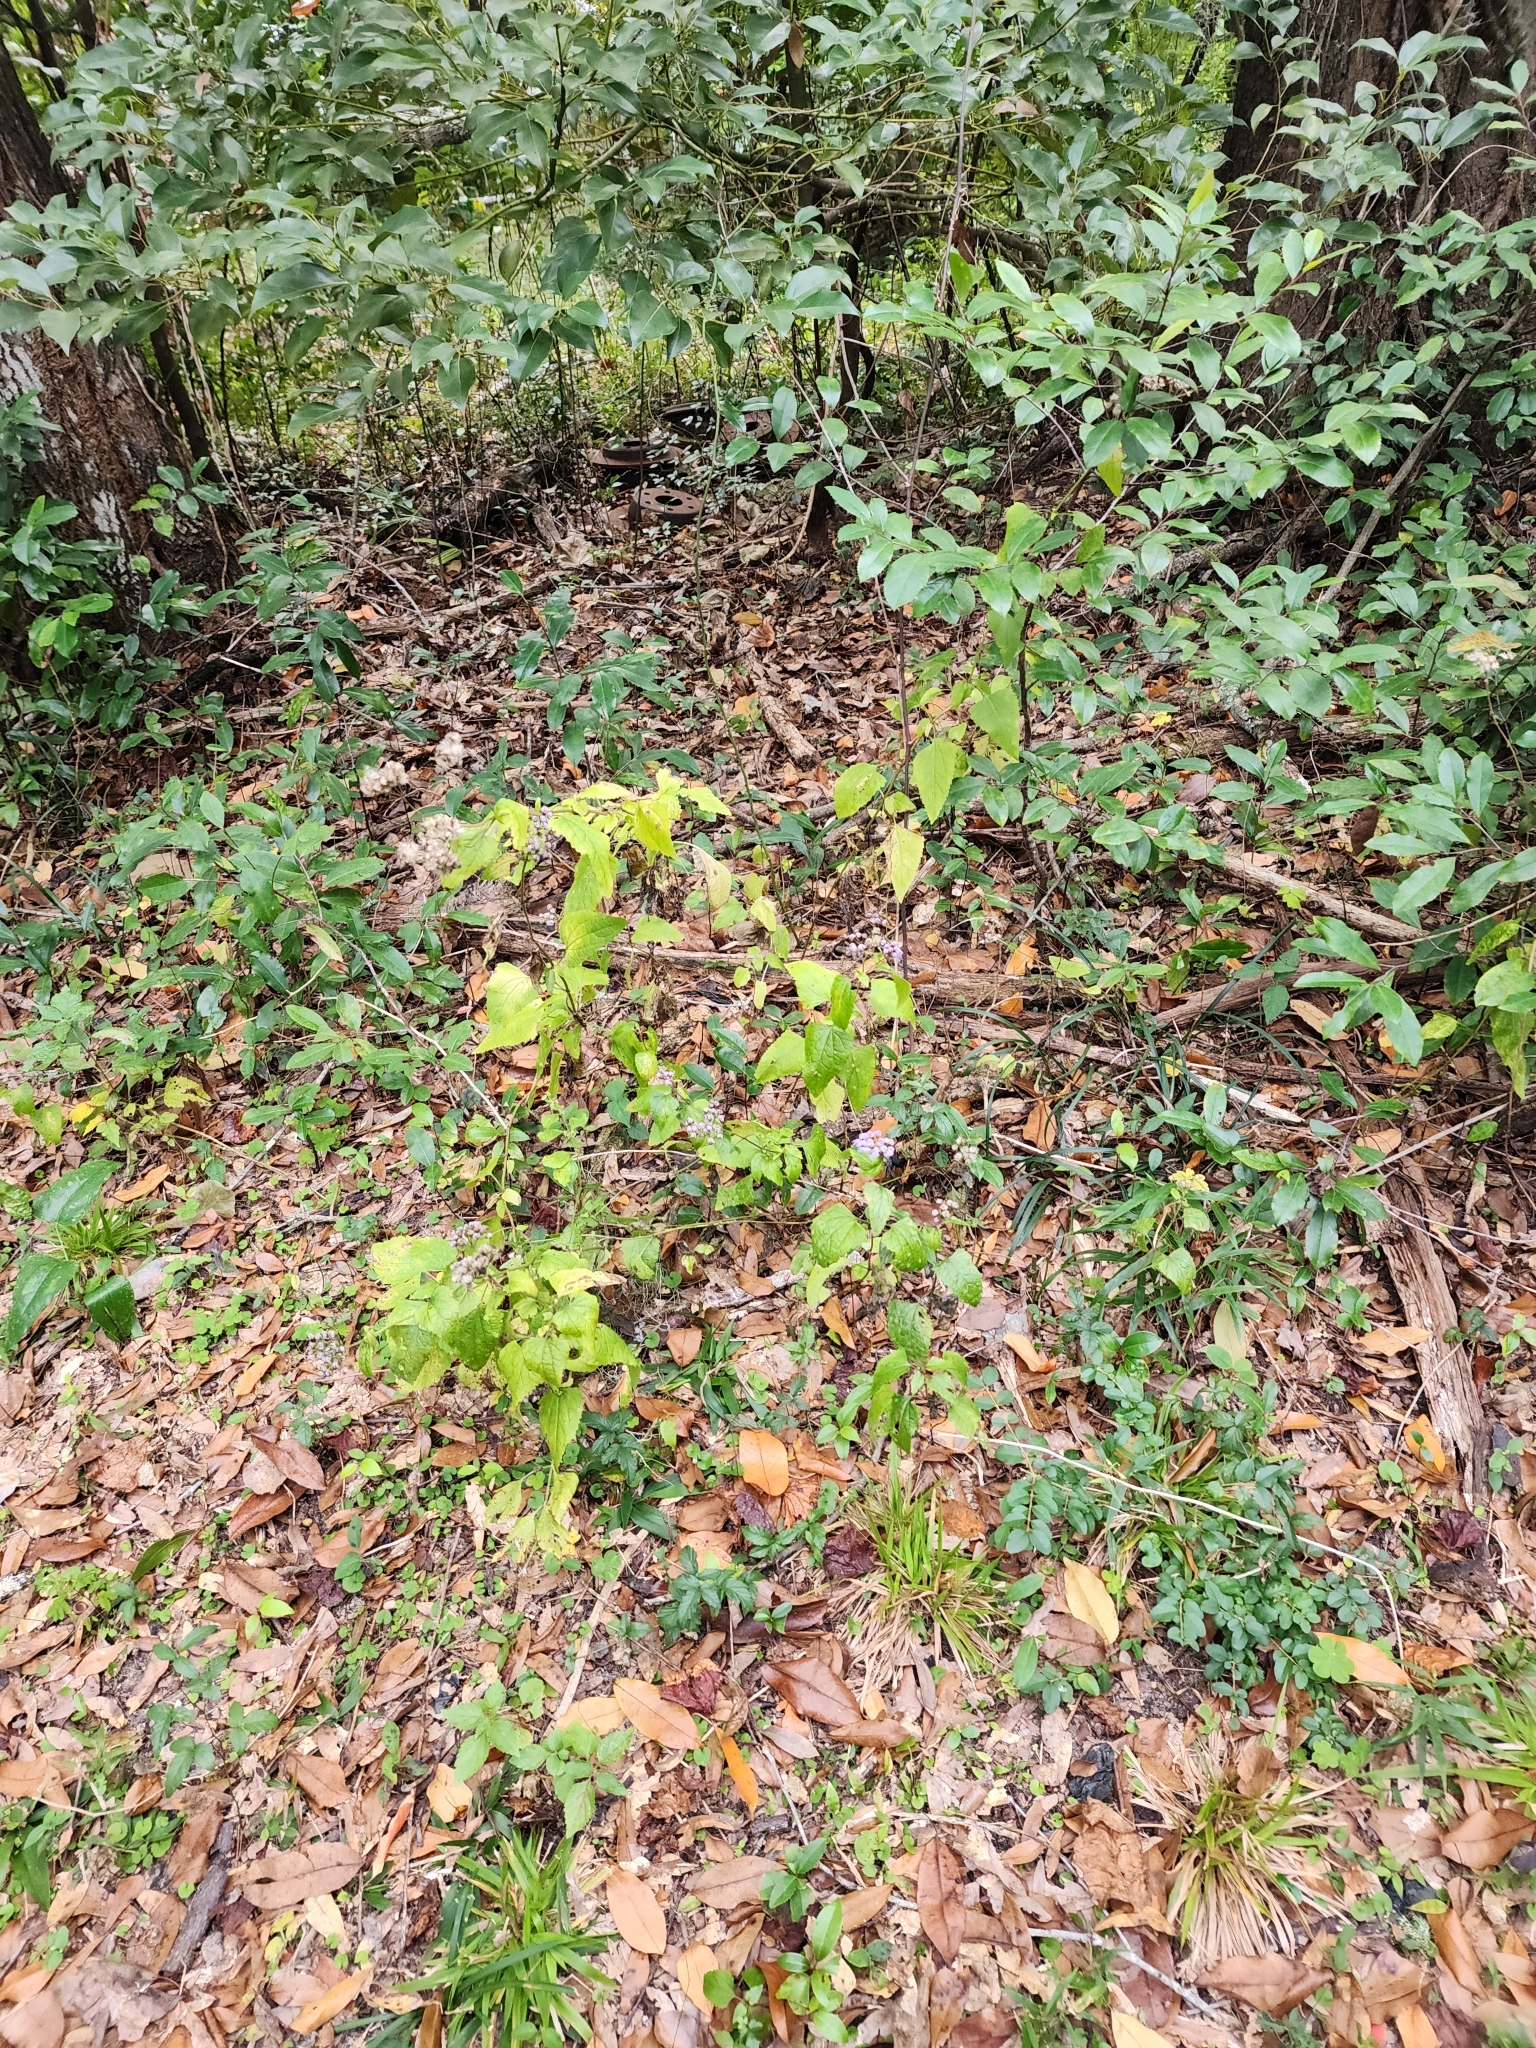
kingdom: Plantae
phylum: Tracheophyta
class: Magnoliopsida
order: Asterales
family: Asteraceae
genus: Conoclinium
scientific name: Conoclinium coelestinum
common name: Blue mistflower
